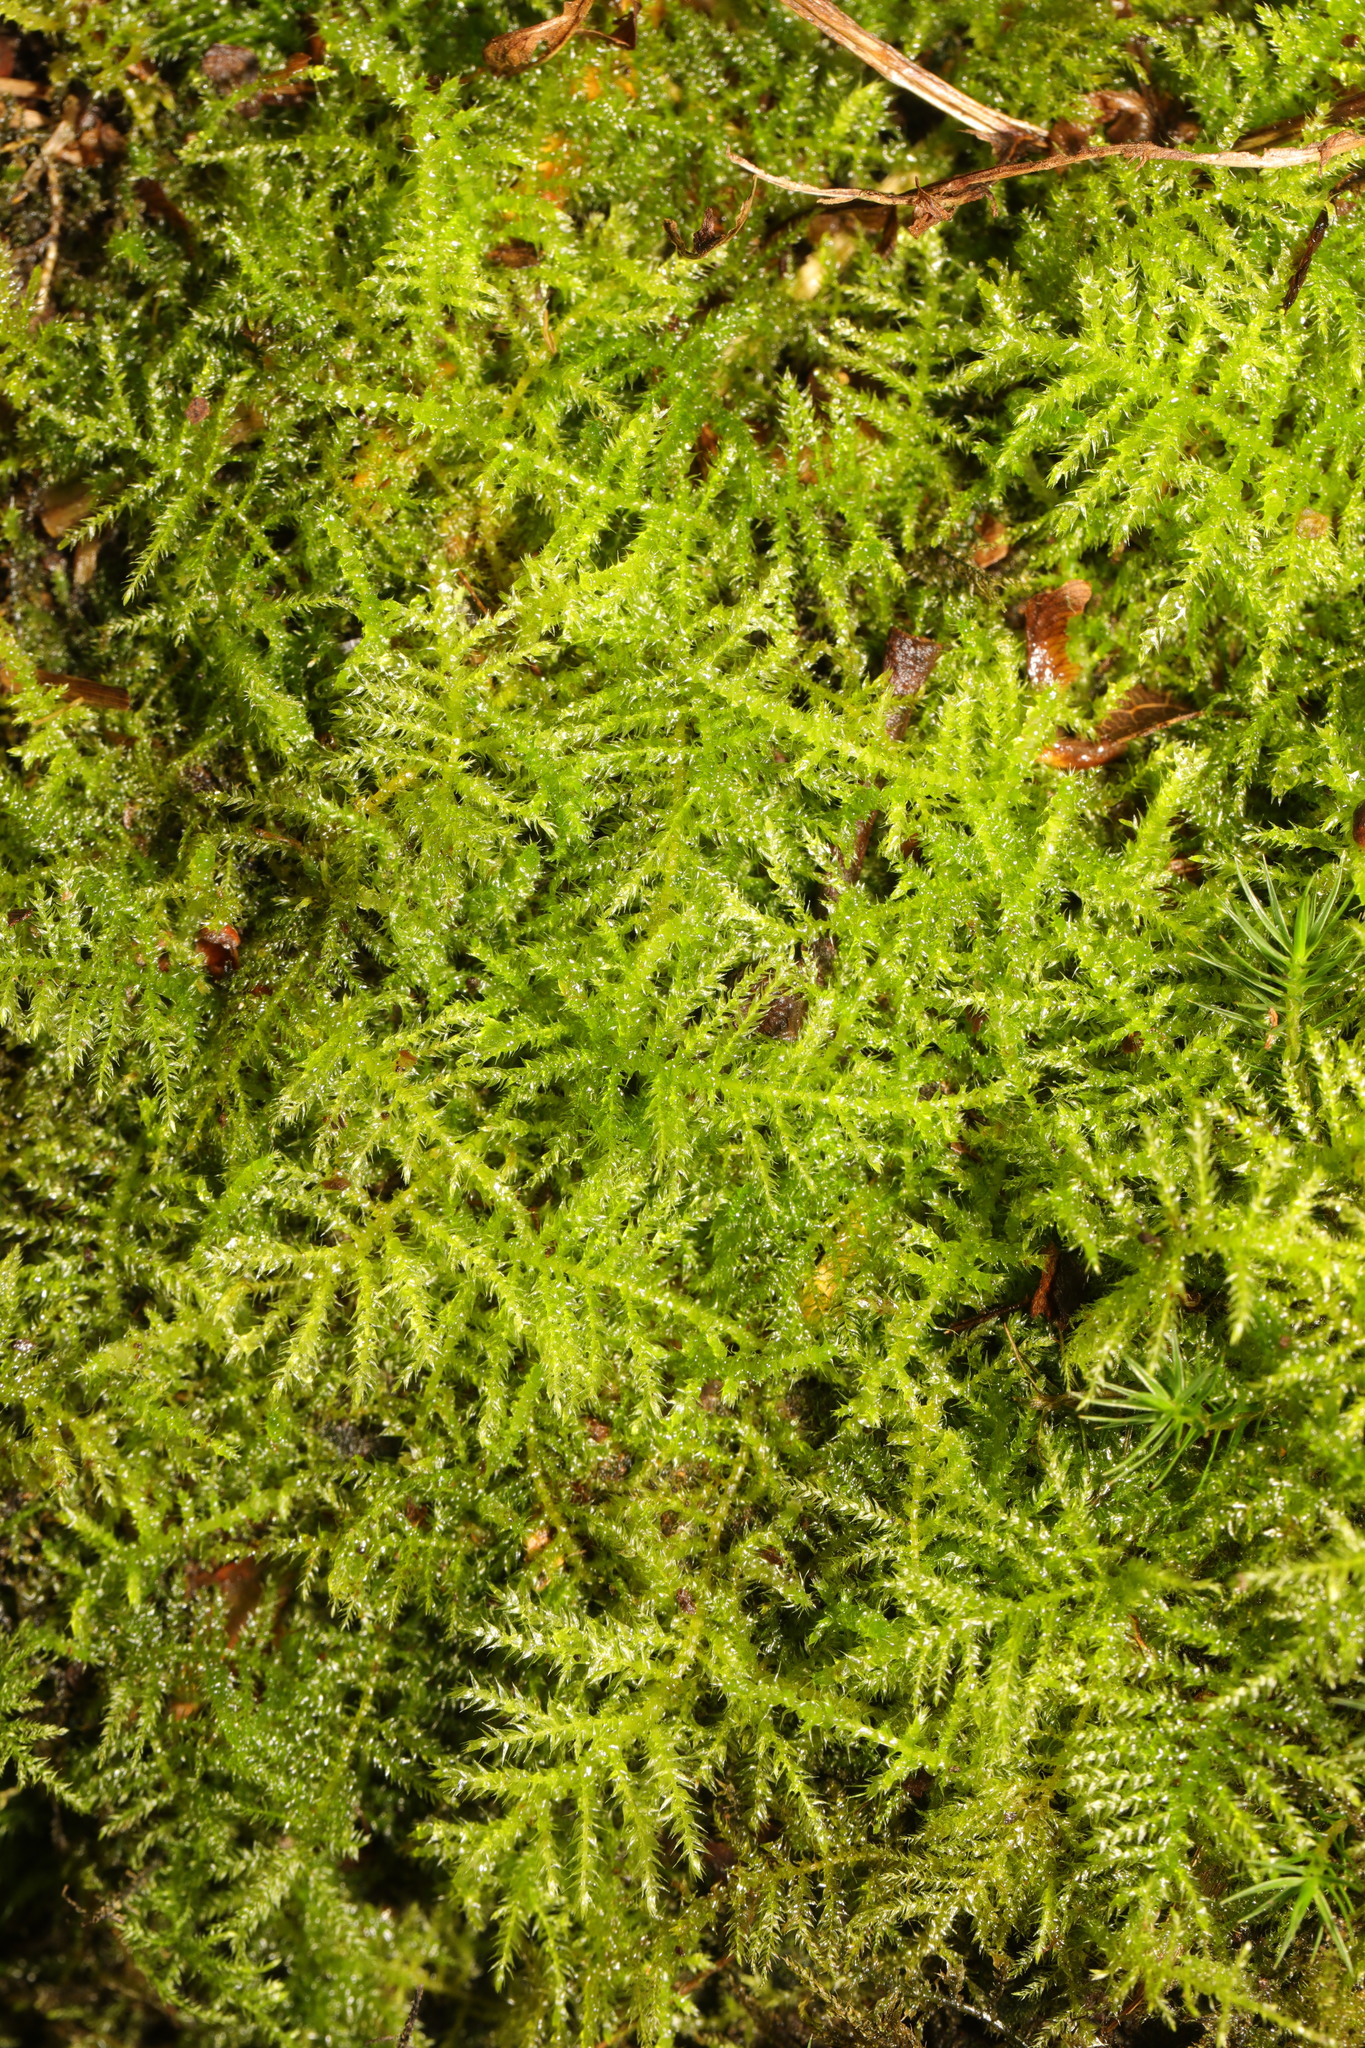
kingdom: Plantae
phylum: Bryophyta
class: Bryopsida
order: Hypnales
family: Brachytheciaceae
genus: Kindbergia
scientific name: Kindbergia praelonga
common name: Slender beaked moss
